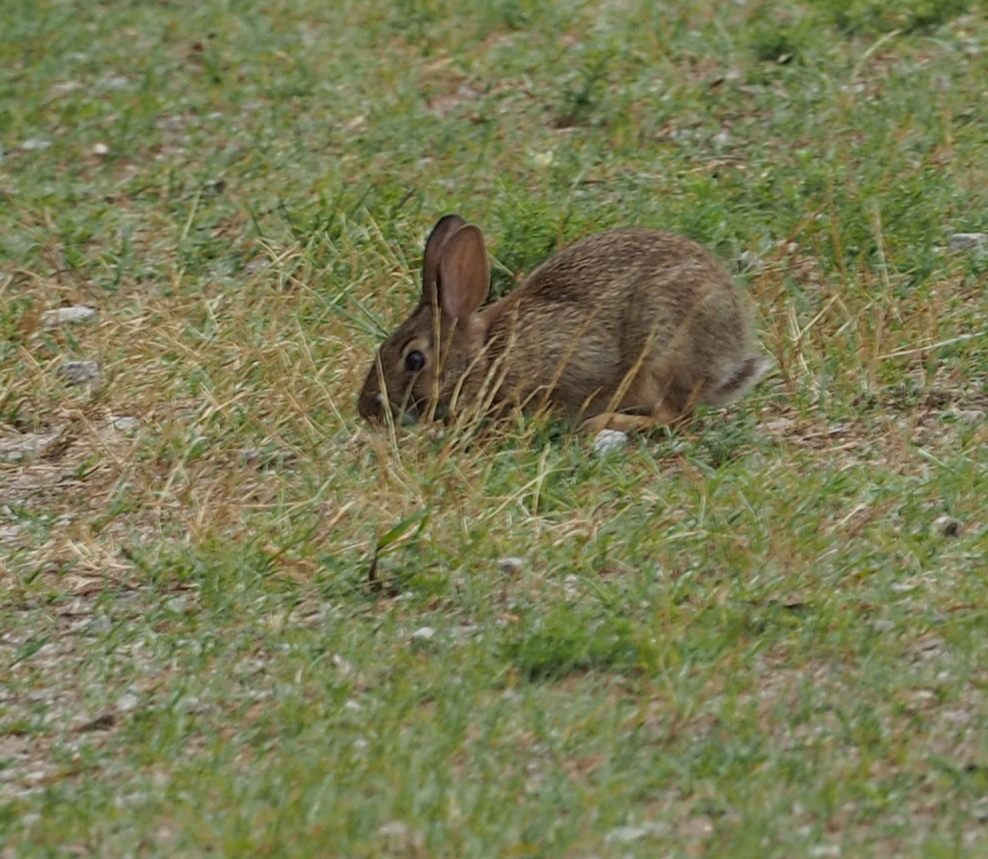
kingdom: Animalia
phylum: Chordata
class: Mammalia
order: Lagomorpha
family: Leporidae
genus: Sylvilagus
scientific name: Sylvilagus floridanus
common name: Eastern cottontail
